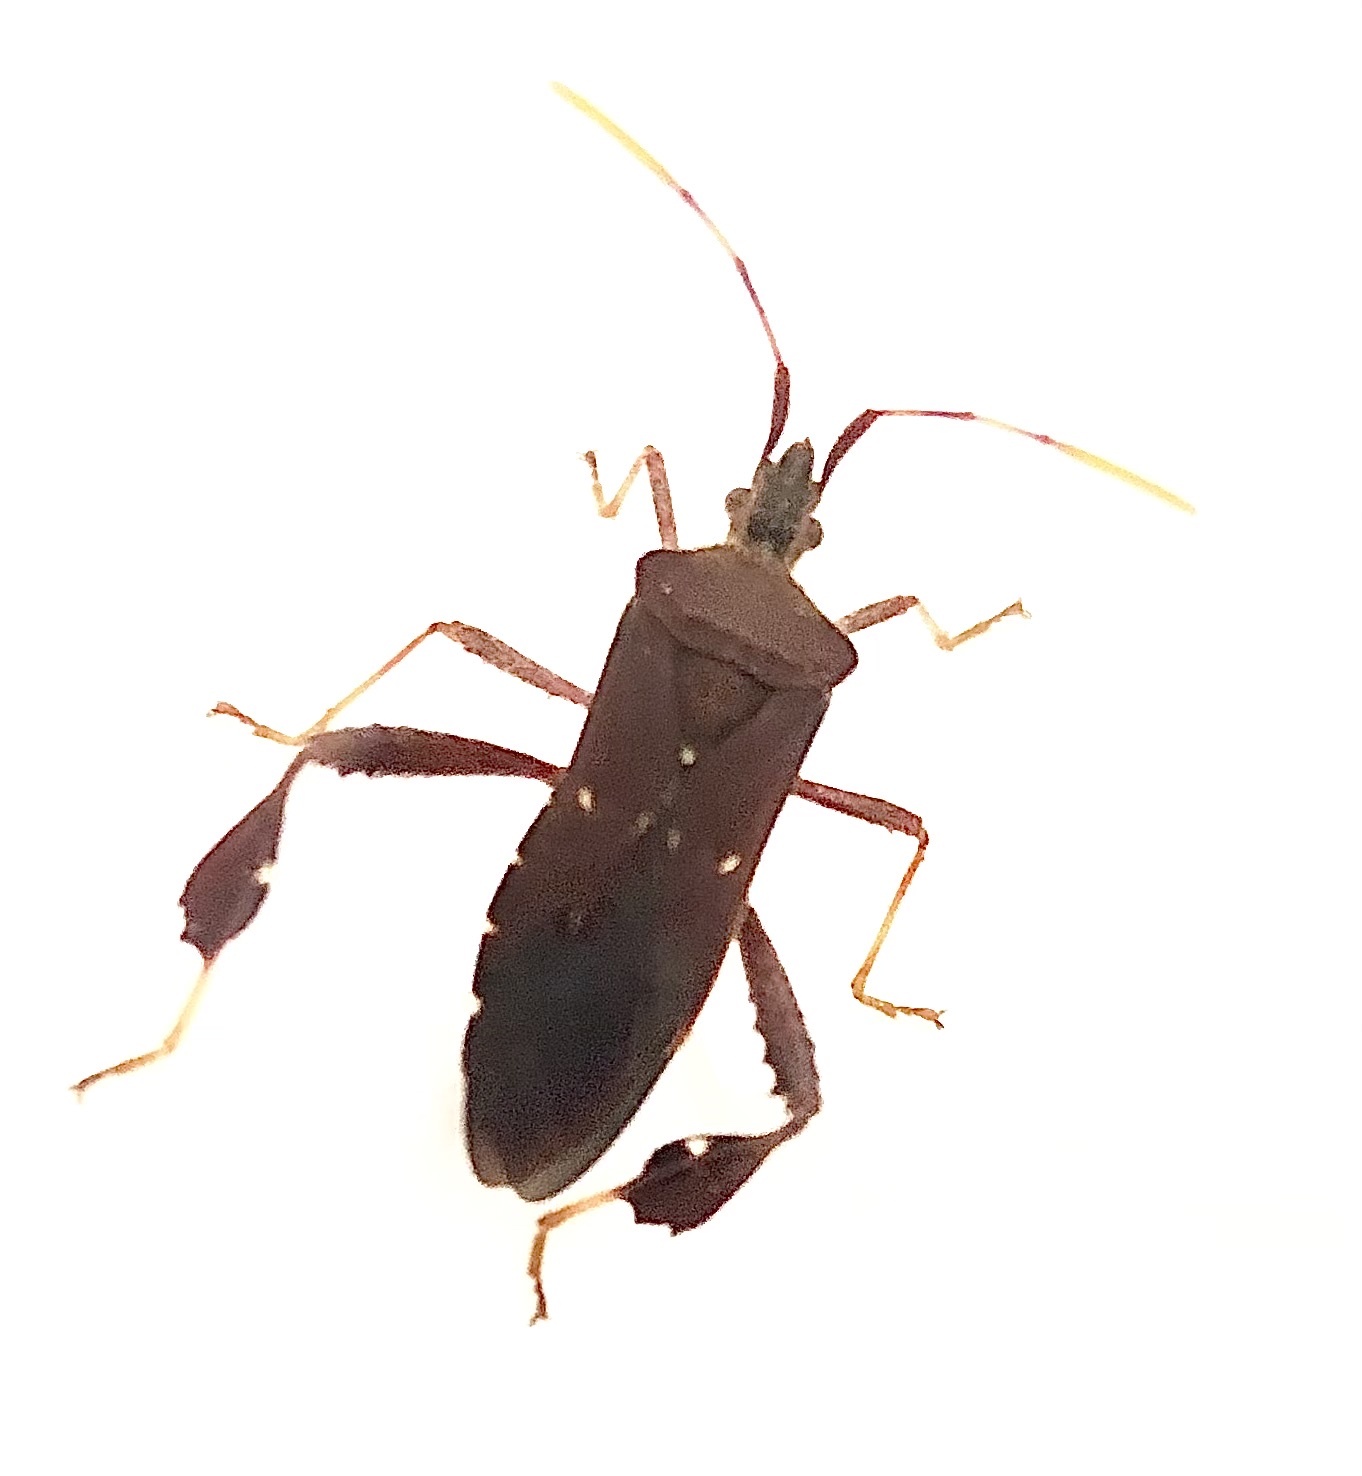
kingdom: Animalia
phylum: Arthropoda
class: Insecta
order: Hemiptera
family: Coreidae
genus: Leptoglossus
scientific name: Leptoglossus oppositus
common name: Northern leaf-footed bug
